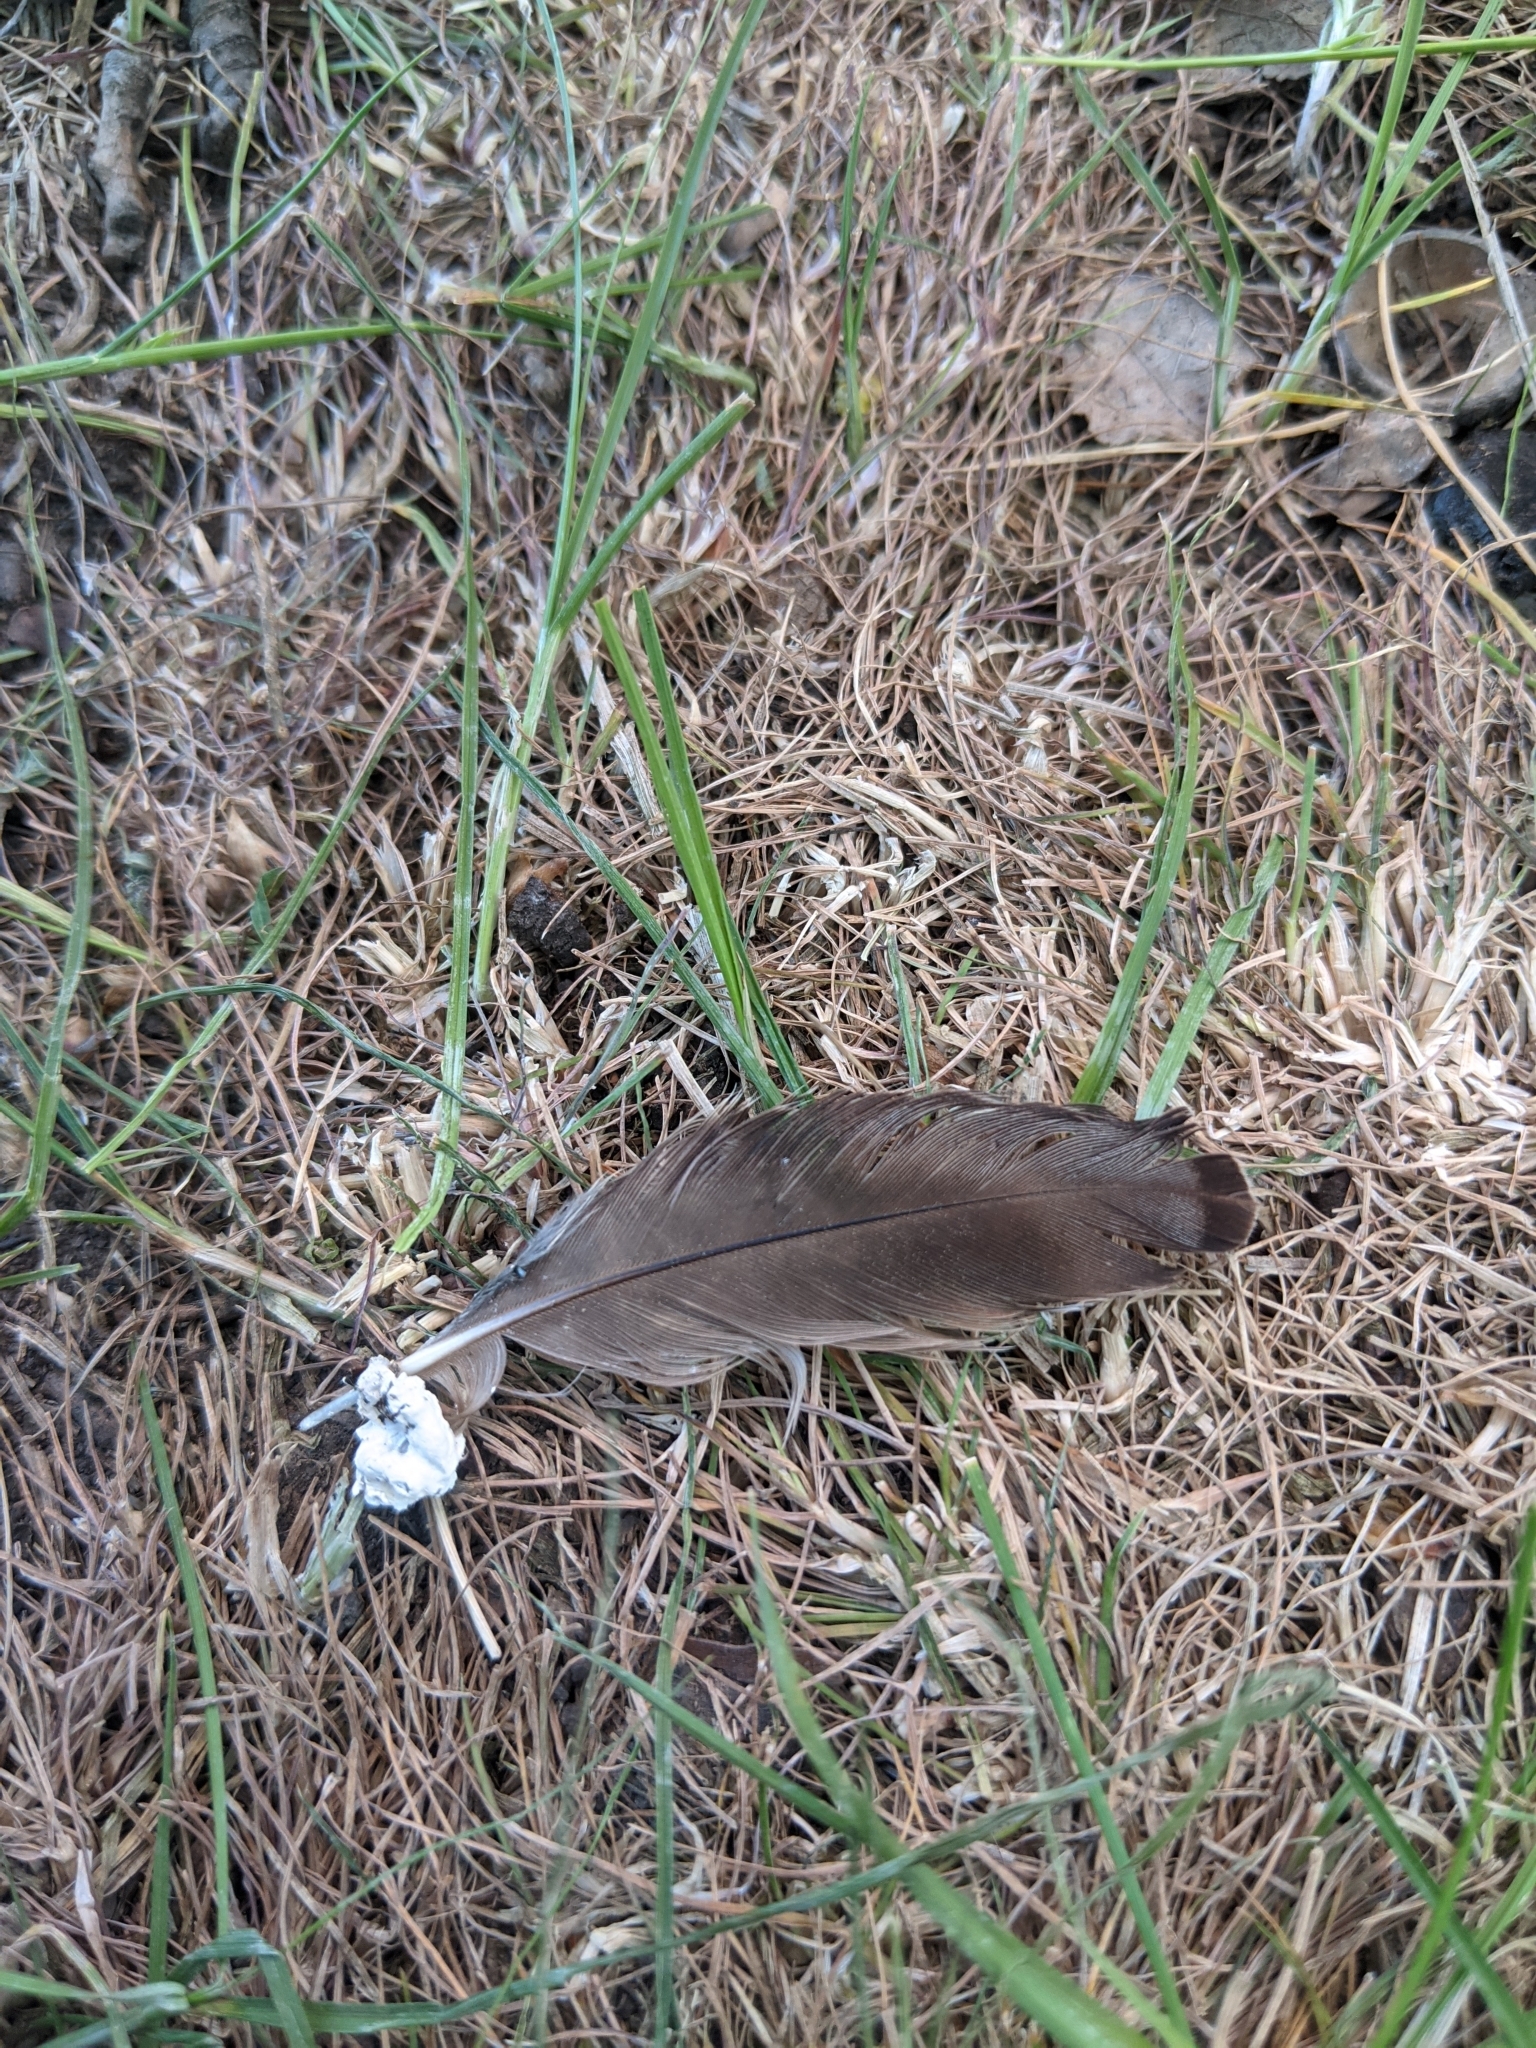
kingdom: Animalia
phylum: Chordata
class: Aves
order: Passeriformes
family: Sturnidae
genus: Sturnus
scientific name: Sturnus vulgaris
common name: Common starling
